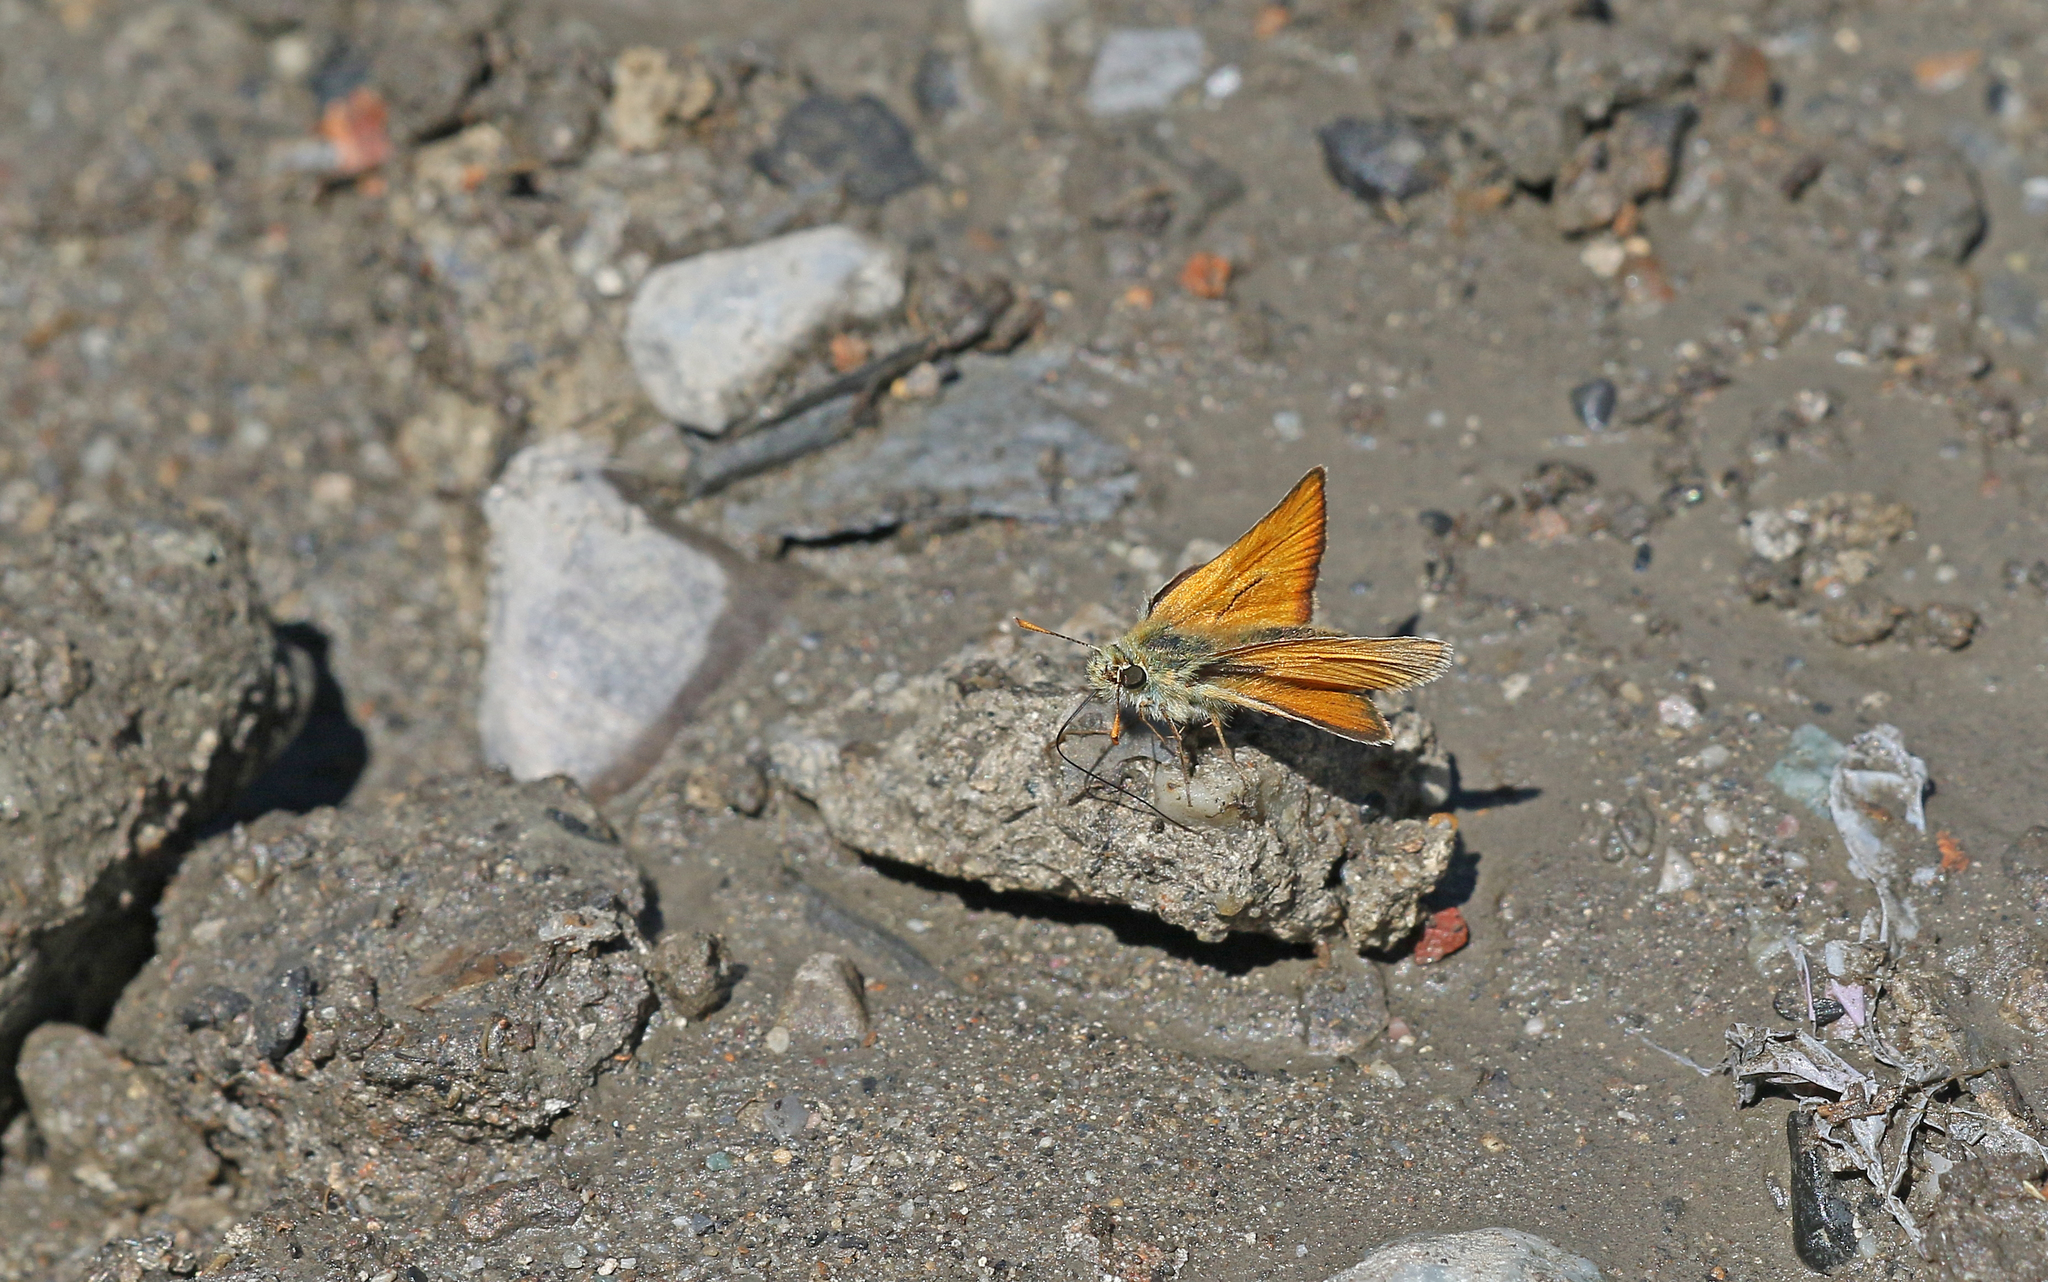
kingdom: Animalia
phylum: Arthropoda
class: Insecta
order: Lepidoptera
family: Hesperiidae
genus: Thymelicus
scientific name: Thymelicus sylvestris
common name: Small skipper
